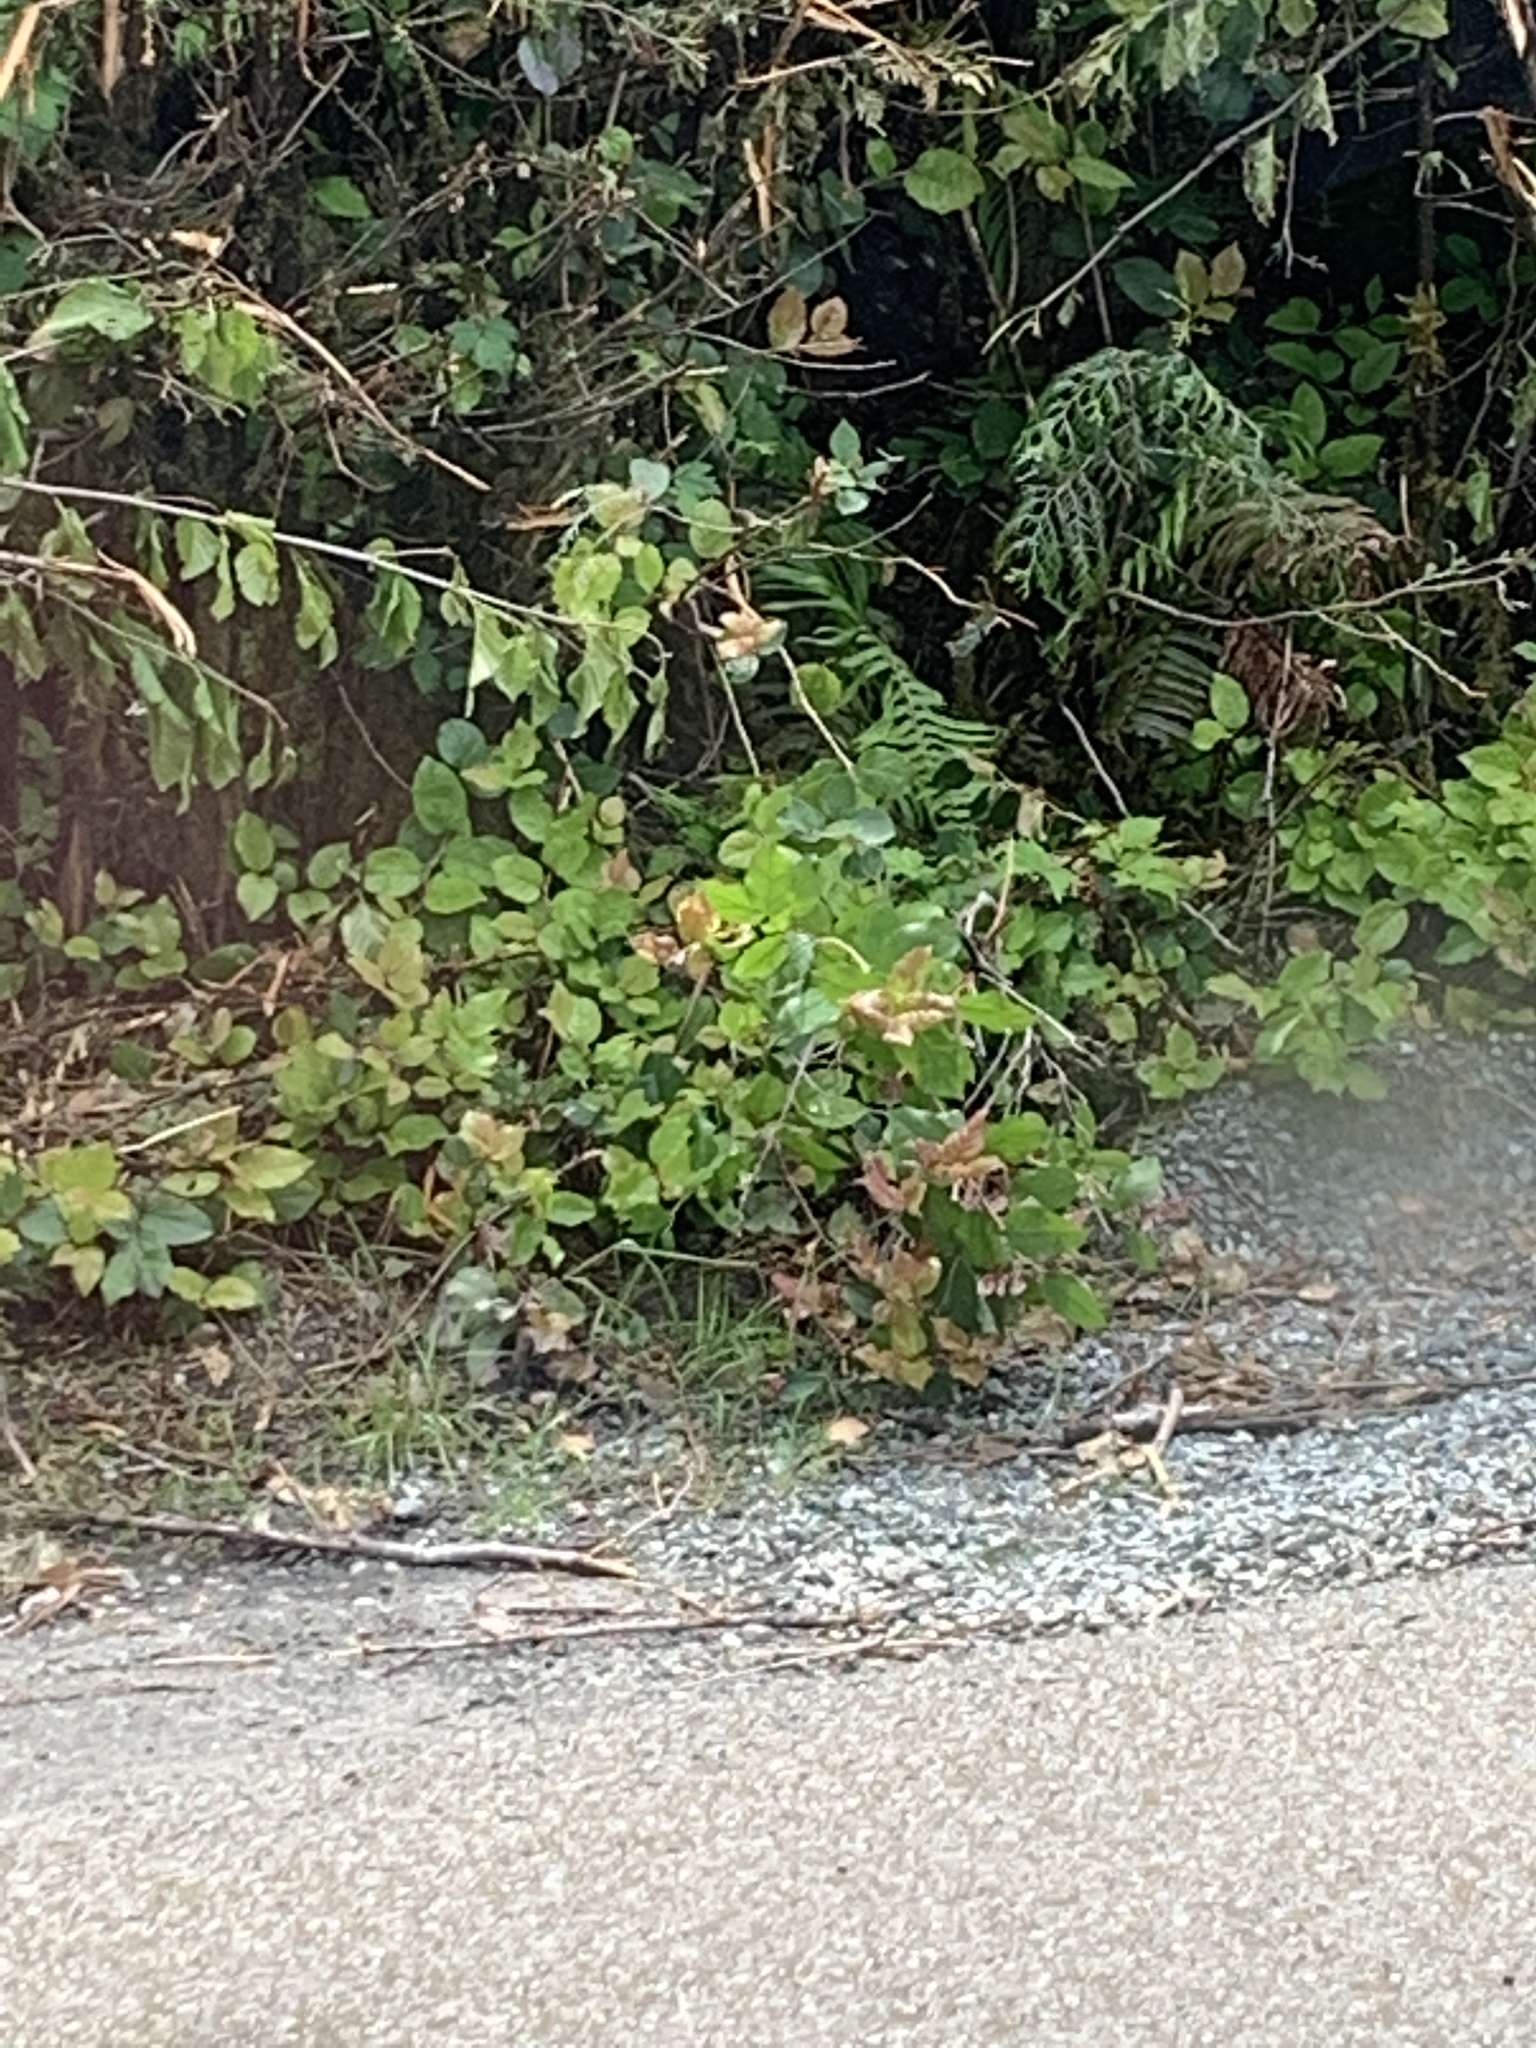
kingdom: Plantae
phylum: Tracheophyta
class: Magnoliopsida
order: Ericales
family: Ericaceae
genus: Gaultheria
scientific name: Gaultheria shallon
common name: Shallon
